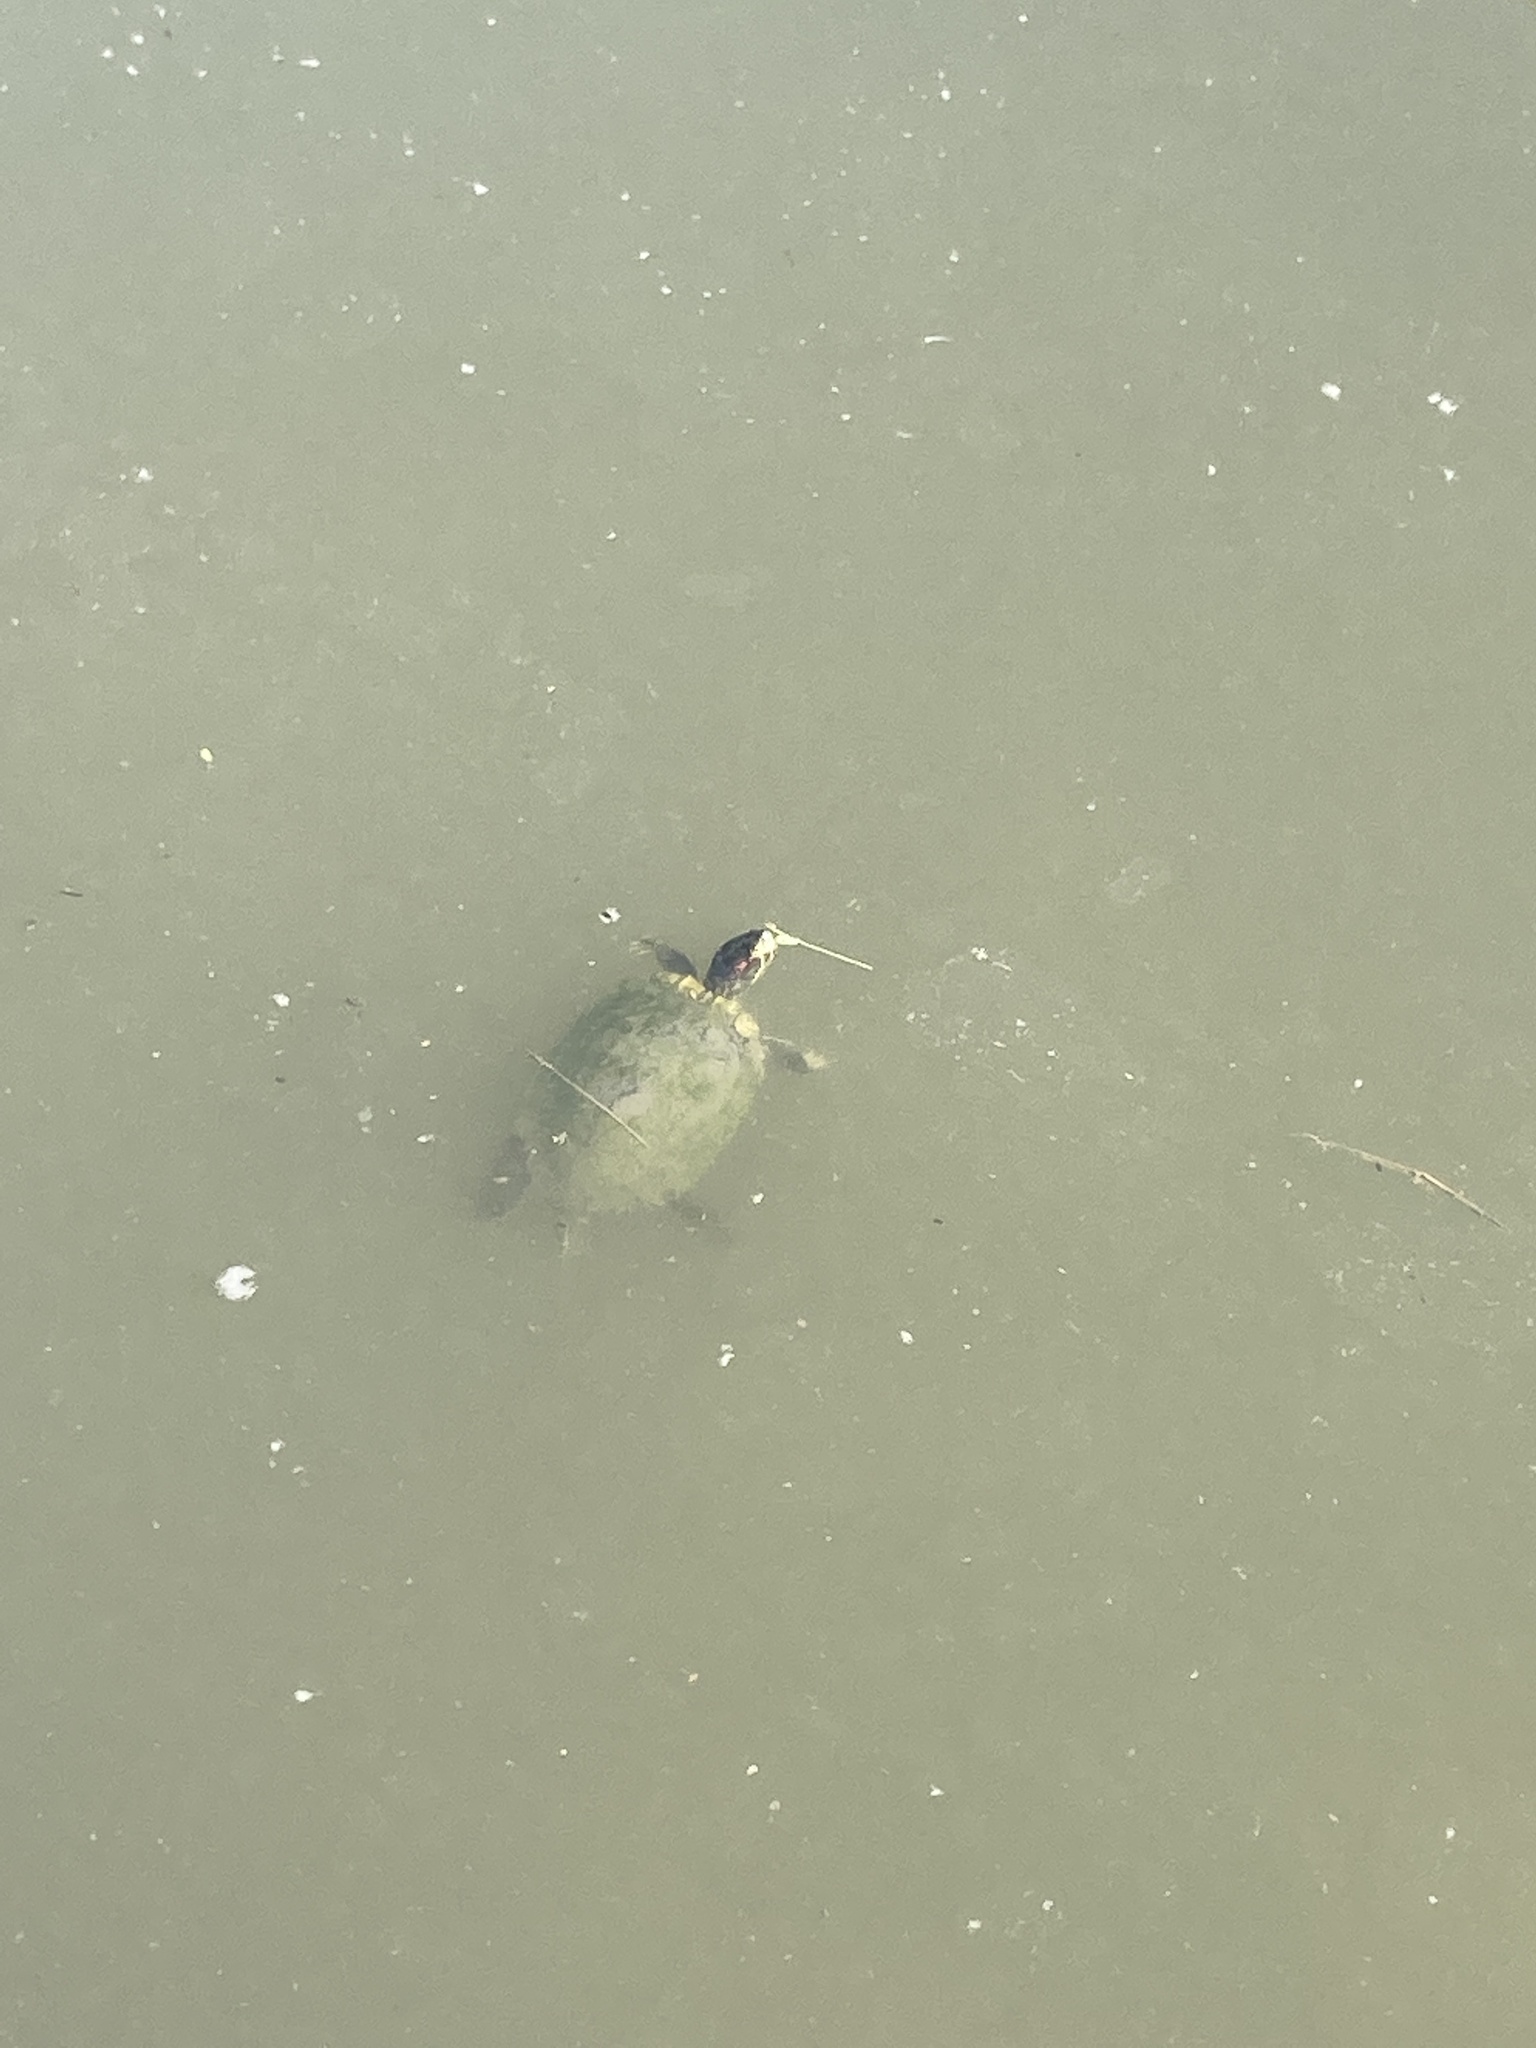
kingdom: Animalia
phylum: Chordata
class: Testudines
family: Emydidae
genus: Trachemys
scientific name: Trachemys scripta
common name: Slider
